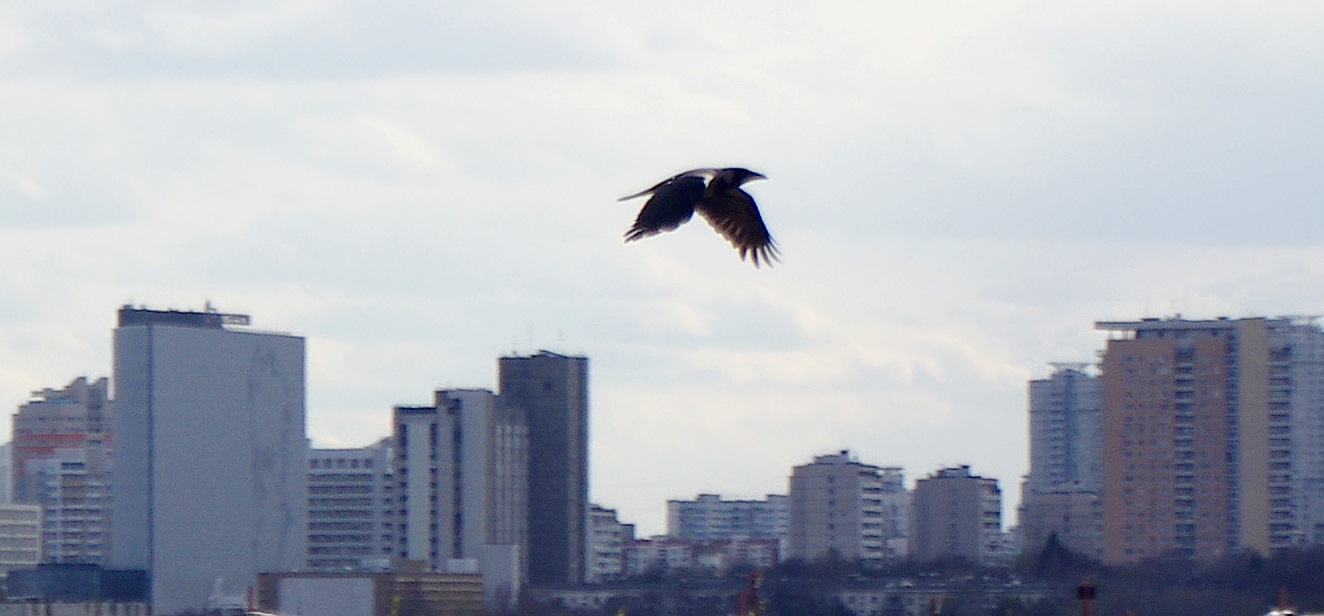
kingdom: Animalia
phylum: Chordata
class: Aves
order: Passeriformes
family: Corvidae
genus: Corvus
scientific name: Corvus cornix
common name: Hooded crow
